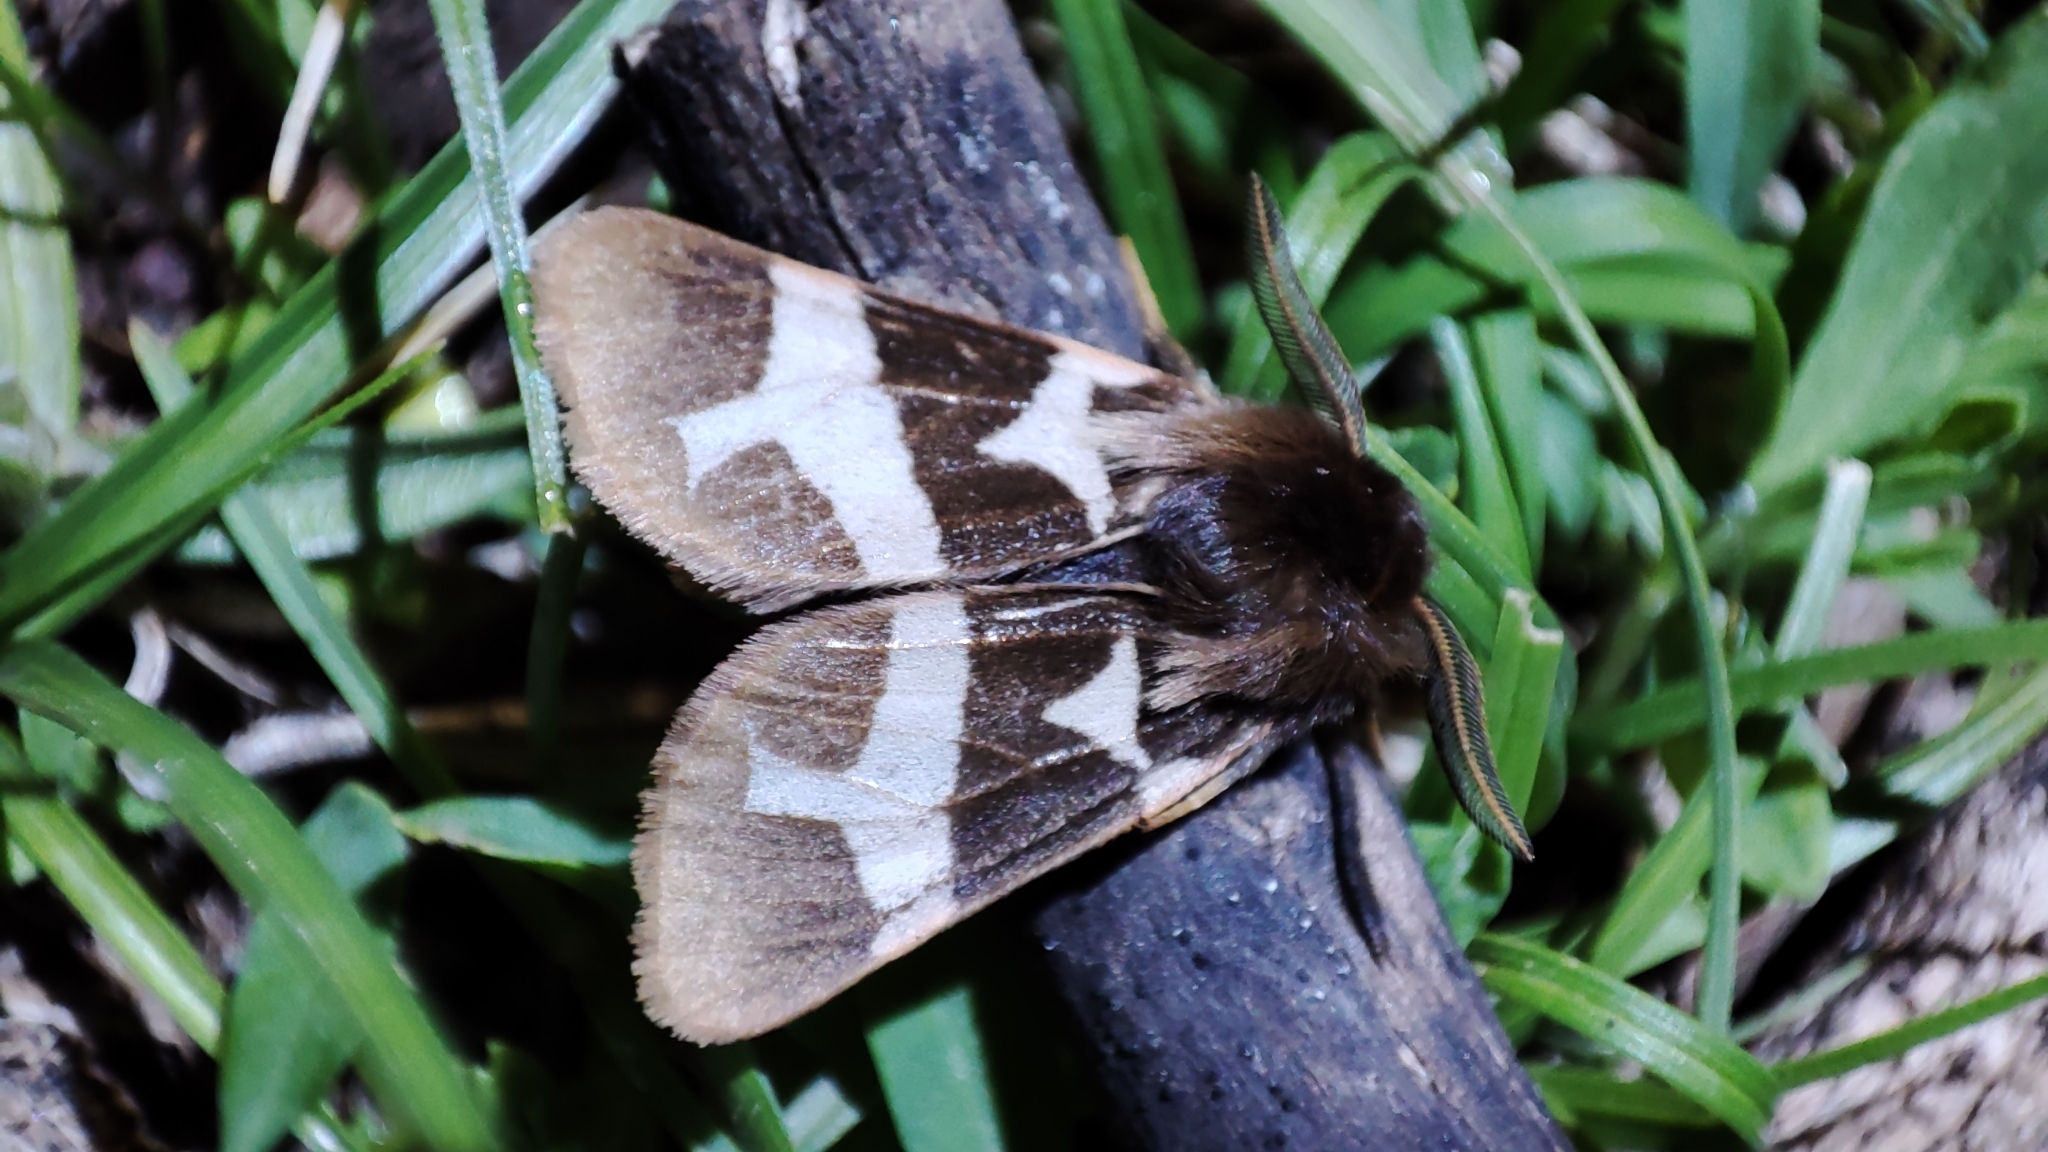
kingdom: Animalia
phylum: Arthropoda
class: Insecta
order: Lepidoptera
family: Erebidae
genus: Watsonarctia
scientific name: Watsonarctia deserta
